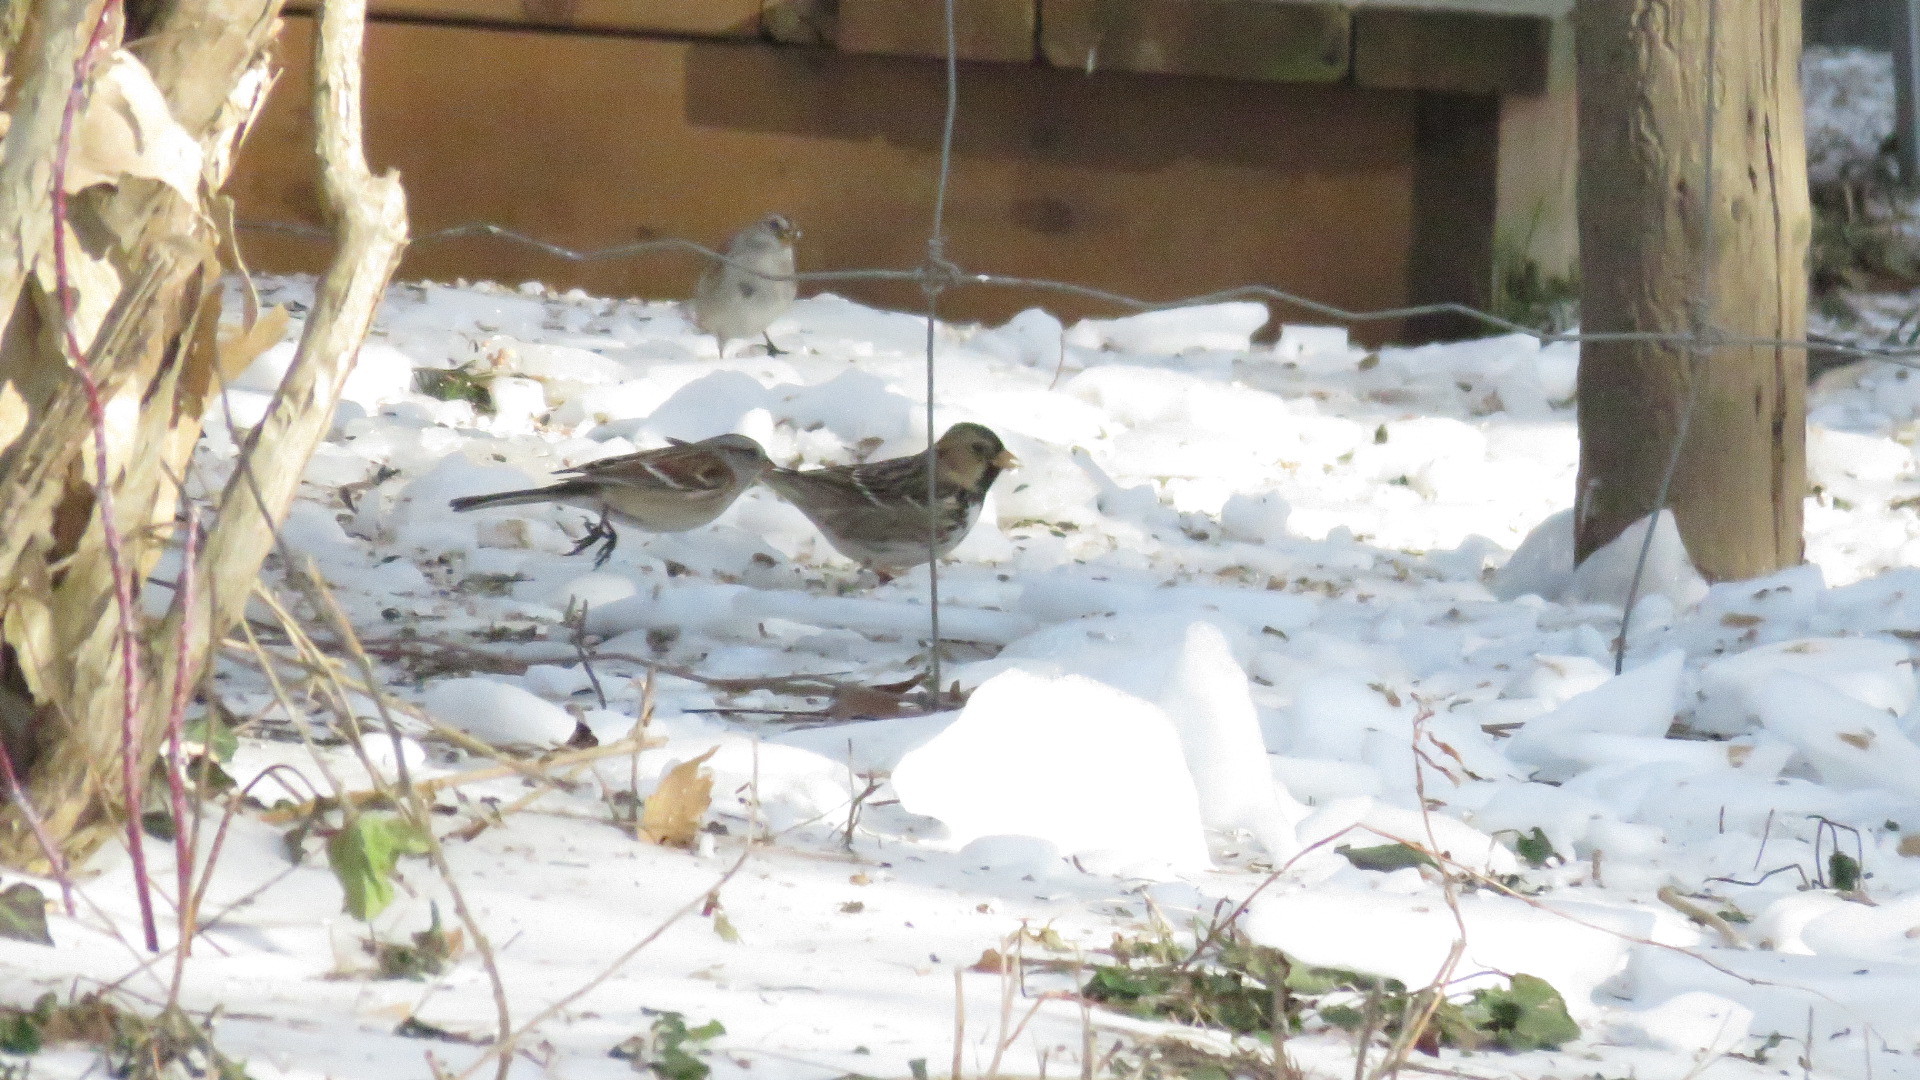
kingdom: Animalia
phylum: Chordata
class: Aves
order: Passeriformes
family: Passerellidae
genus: Zonotrichia
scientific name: Zonotrichia querula
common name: Harris's sparrow
